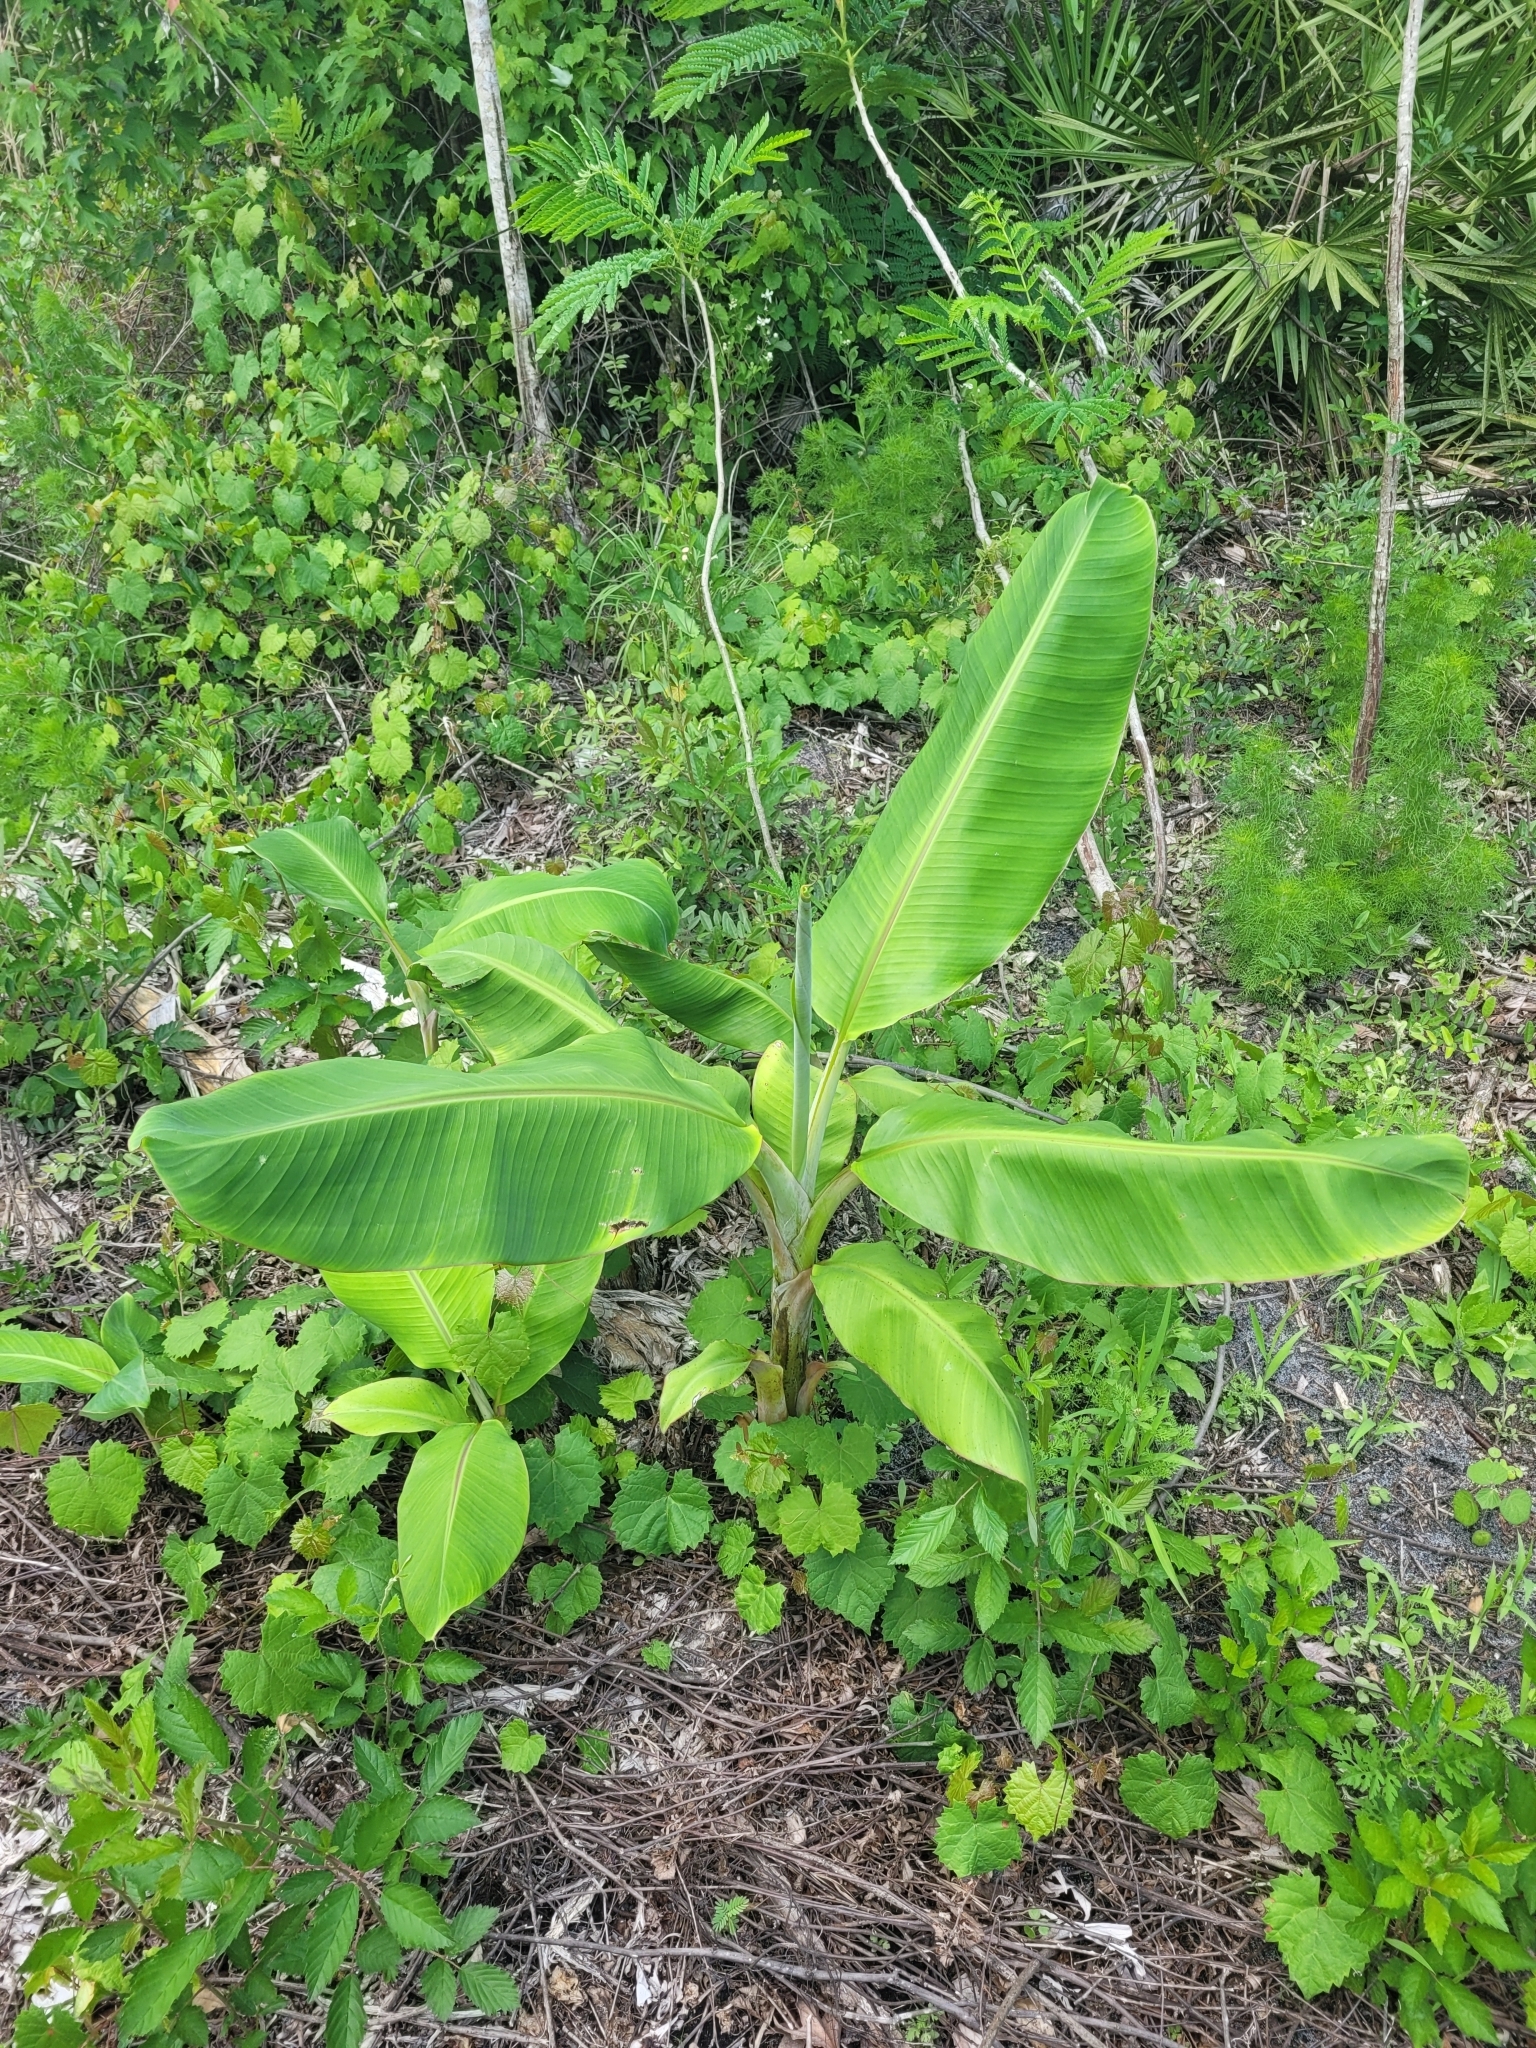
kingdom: Plantae
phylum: Tracheophyta
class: Liliopsida
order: Zingiberales
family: Musaceae
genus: Musa
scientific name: Musa paradisiaca
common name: French plantain
